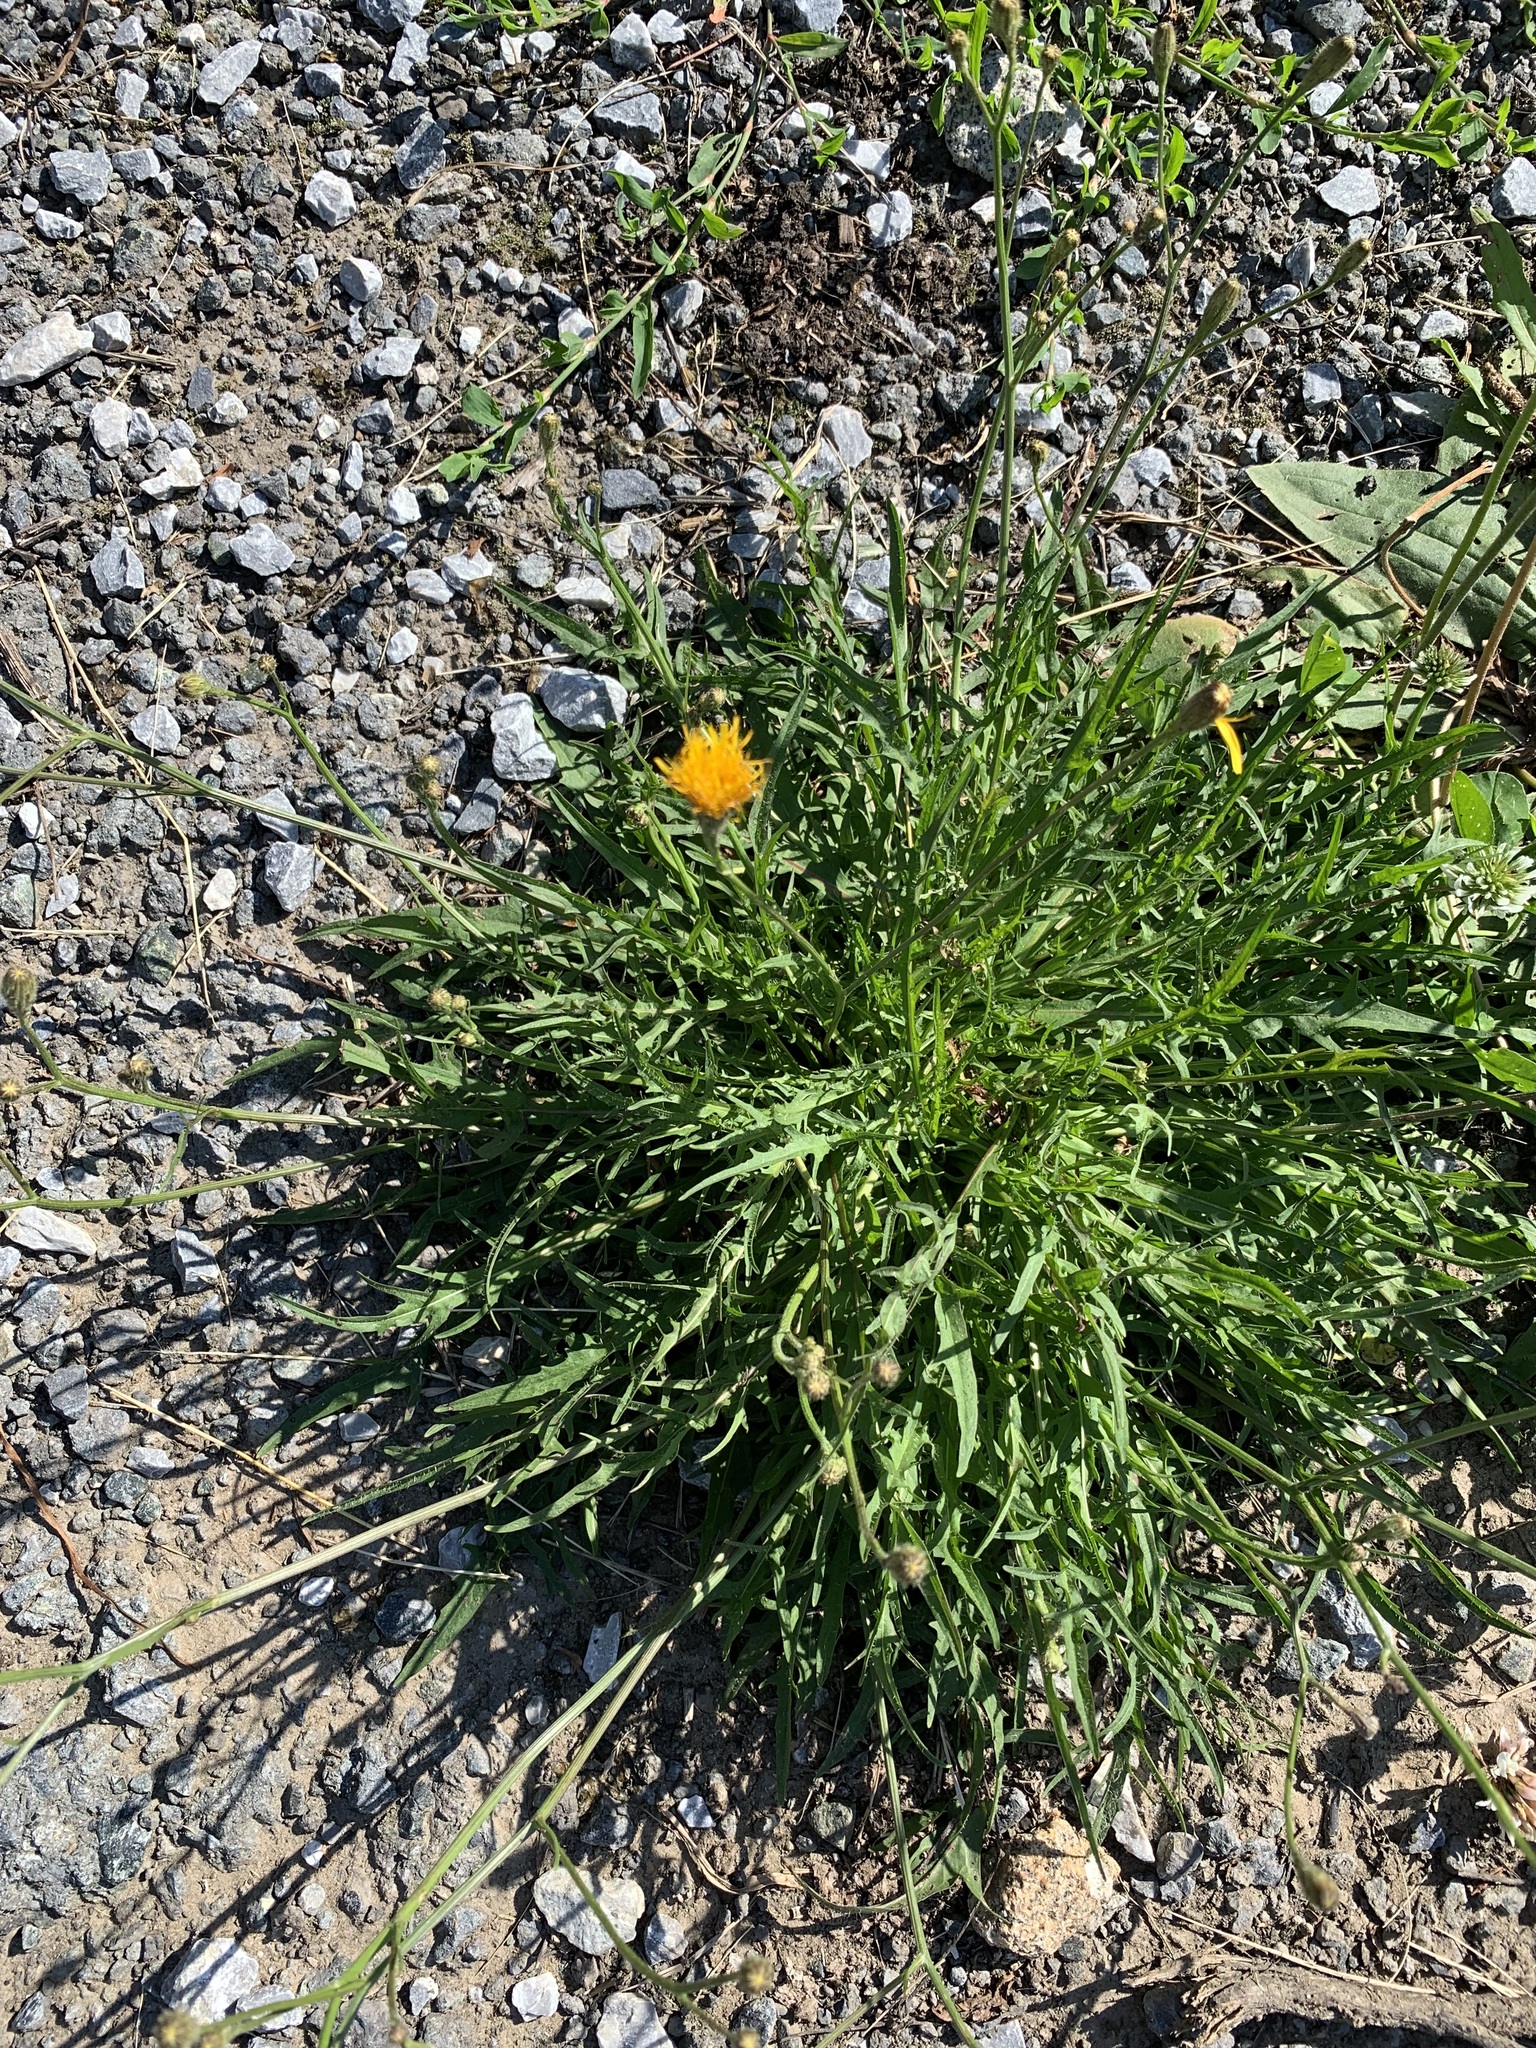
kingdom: Plantae
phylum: Tracheophyta
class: Magnoliopsida
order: Asterales
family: Asteraceae
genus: Scorzoneroides
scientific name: Scorzoneroides autumnalis
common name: Autumn hawkbit
